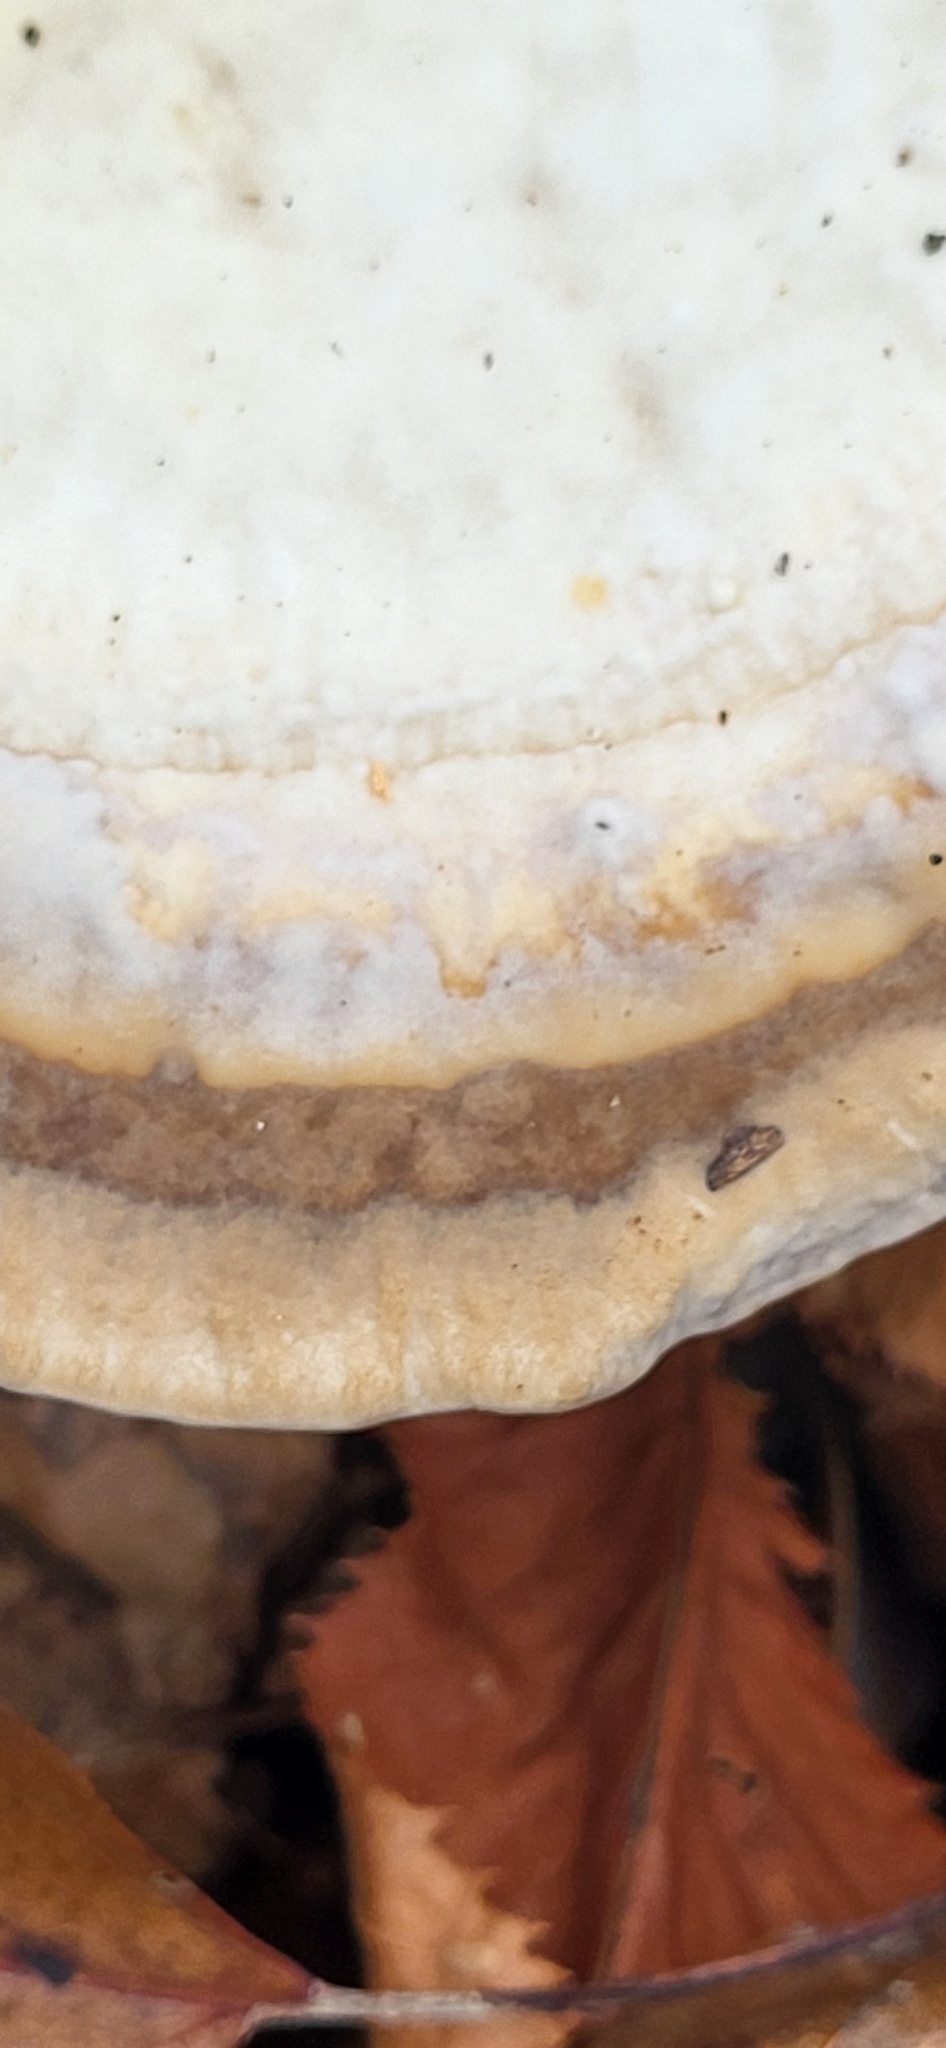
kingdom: Fungi
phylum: Basidiomycota
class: Agaricomycetes
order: Polyporales
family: Polyporaceae
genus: Trametes
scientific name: Trametes lactinea
